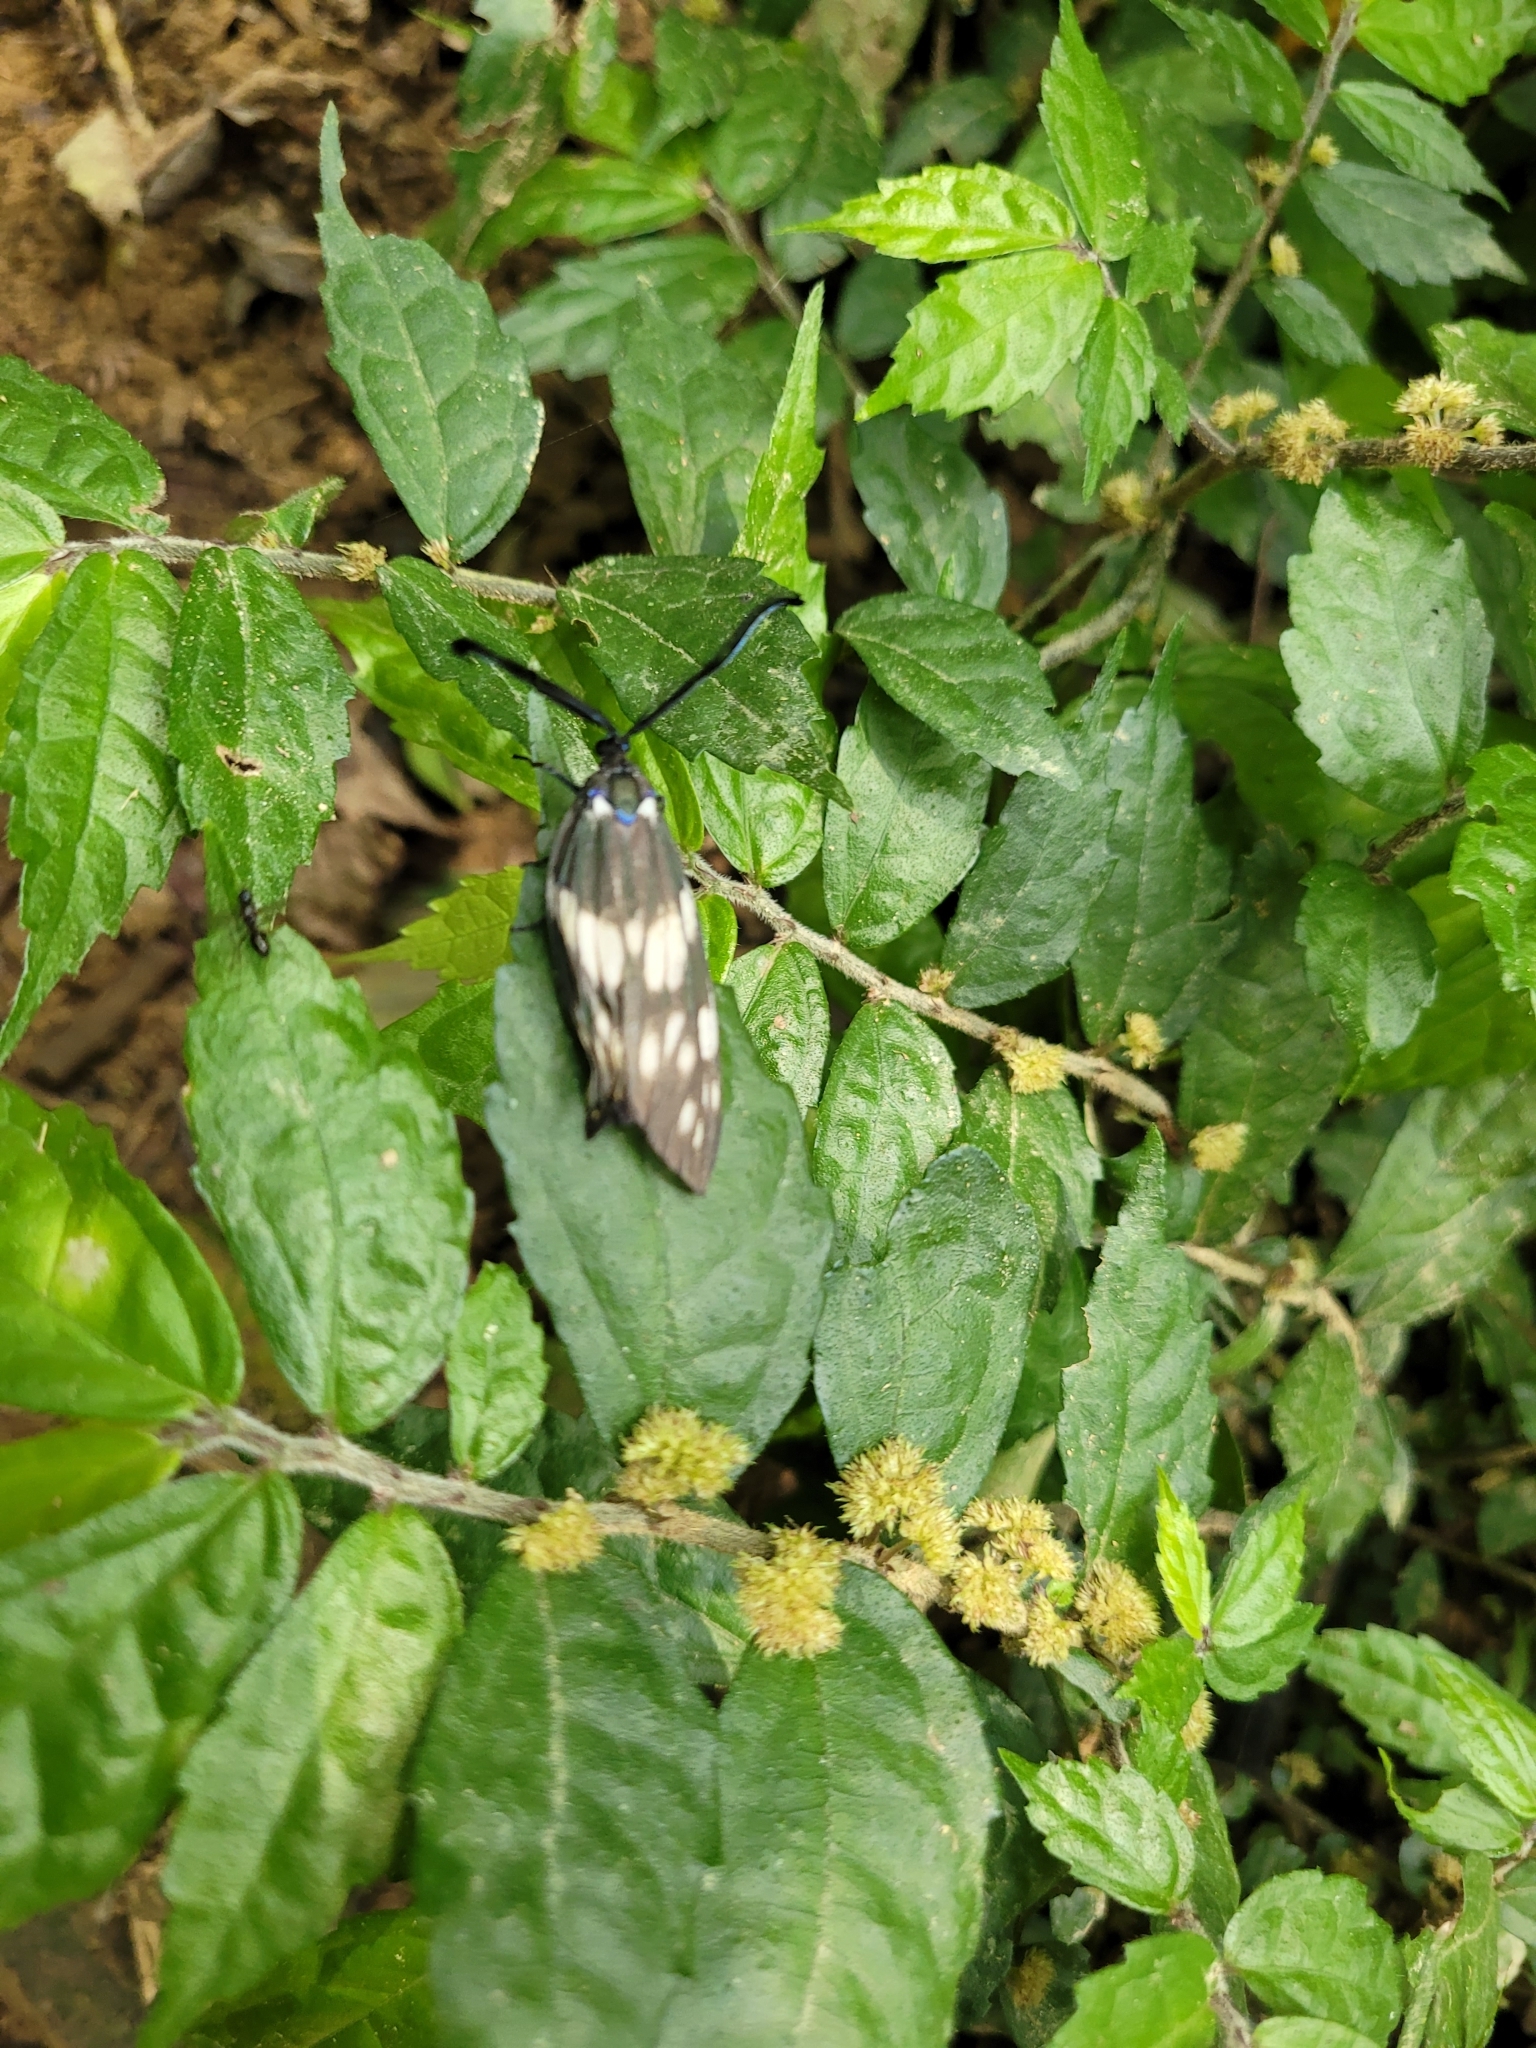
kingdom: Animalia
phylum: Arthropoda
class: Insecta
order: Lepidoptera
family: Zygaenidae
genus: Eterusia
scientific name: Eterusia aedea
